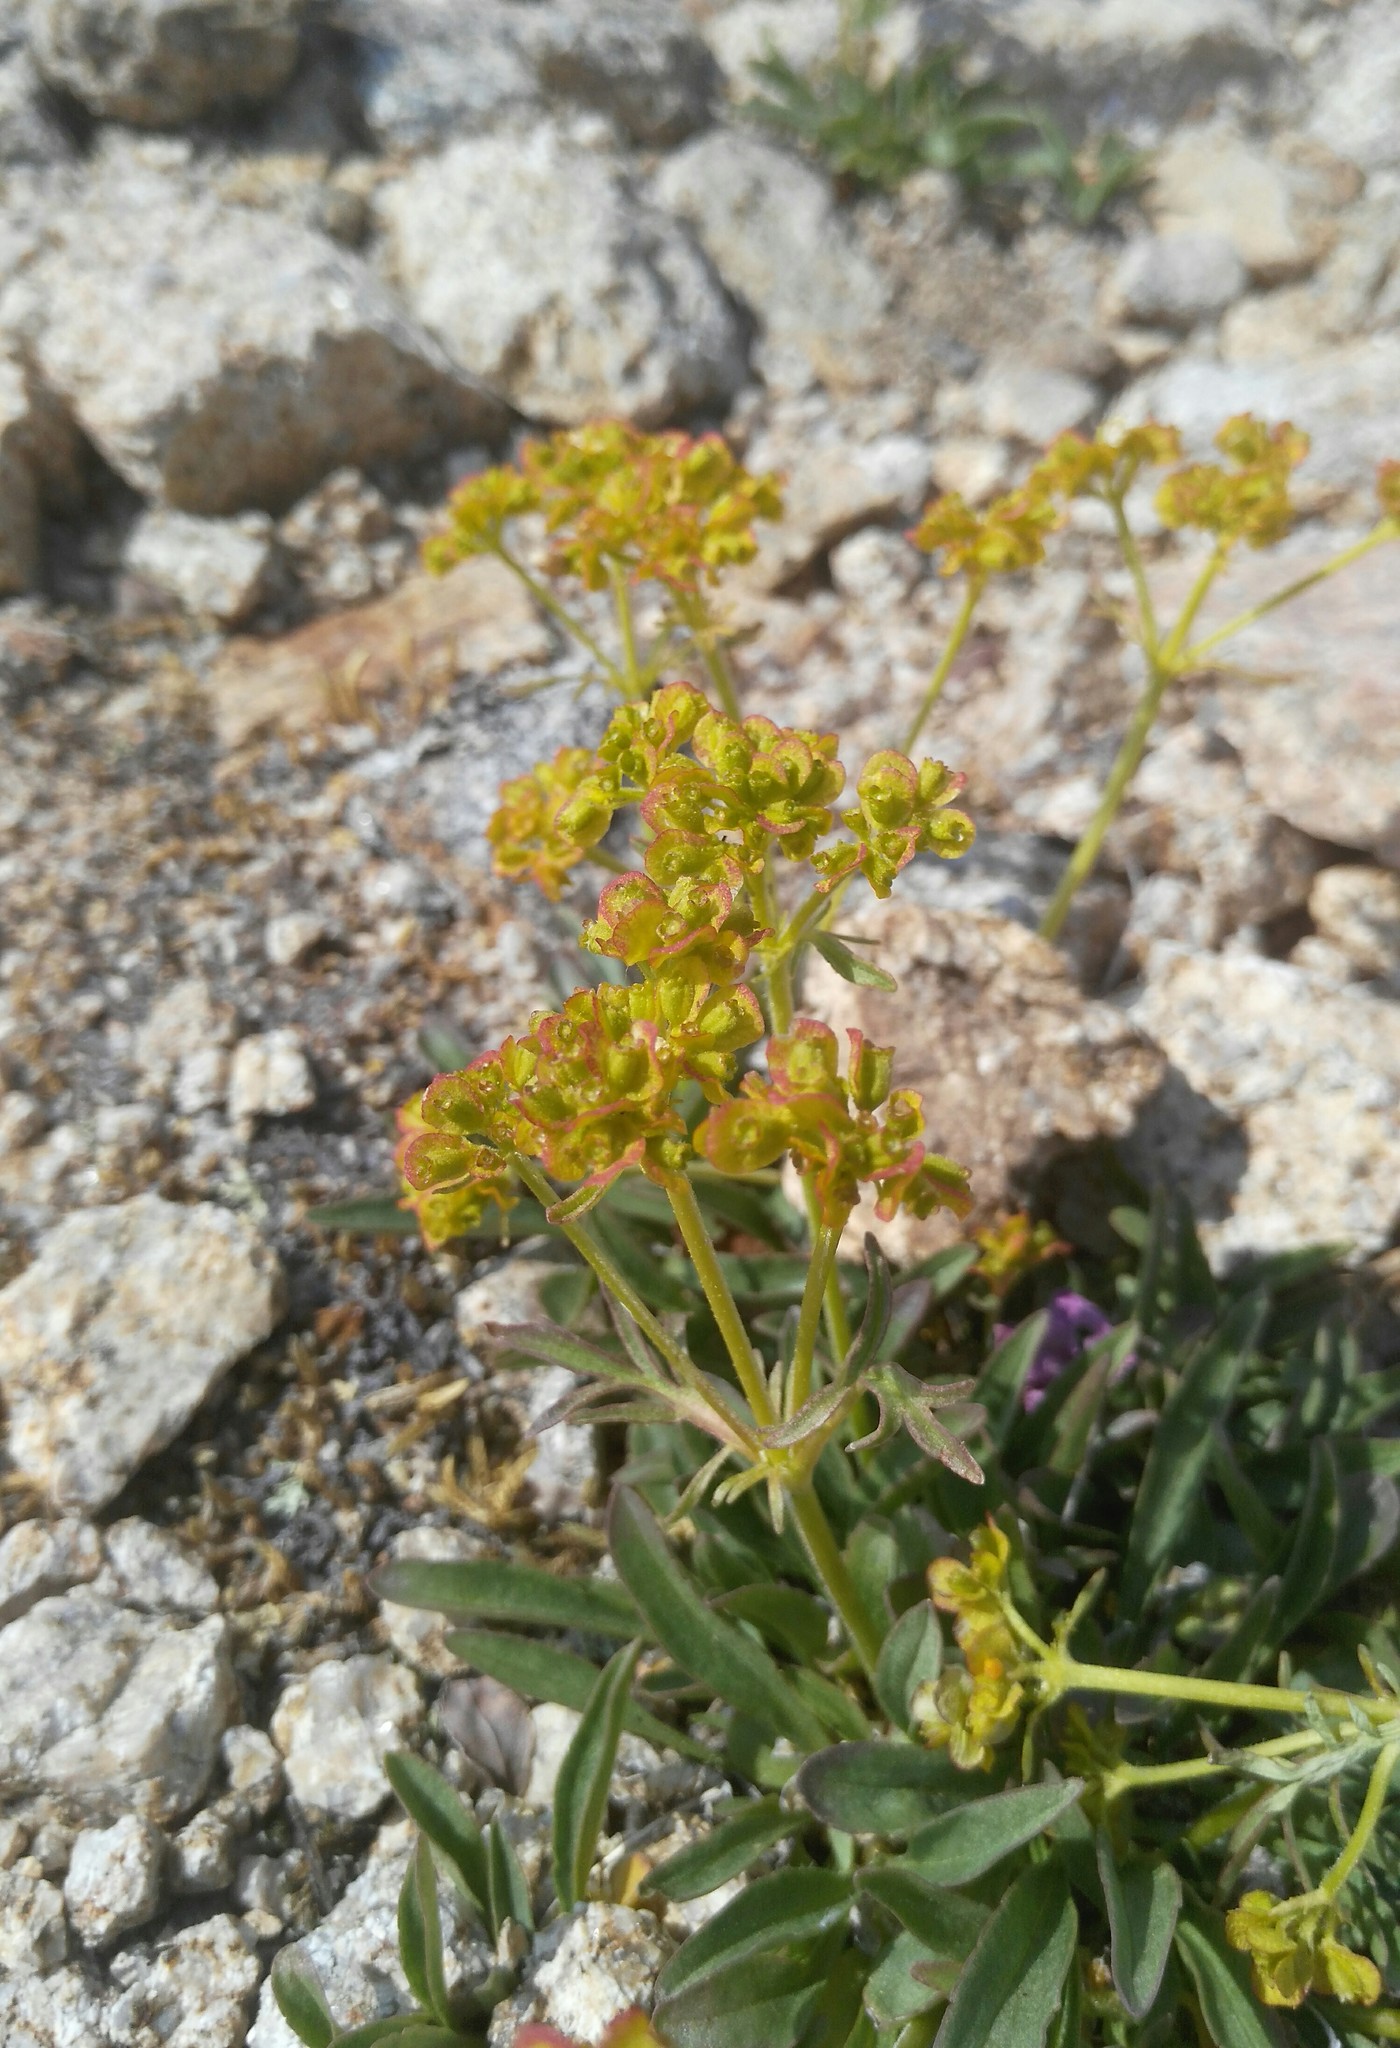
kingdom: Plantae
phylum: Tracheophyta
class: Magnoliopsida
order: Dipsacales
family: Caprifoliaceae
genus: Patrinia
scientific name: Patrinia sibirica
